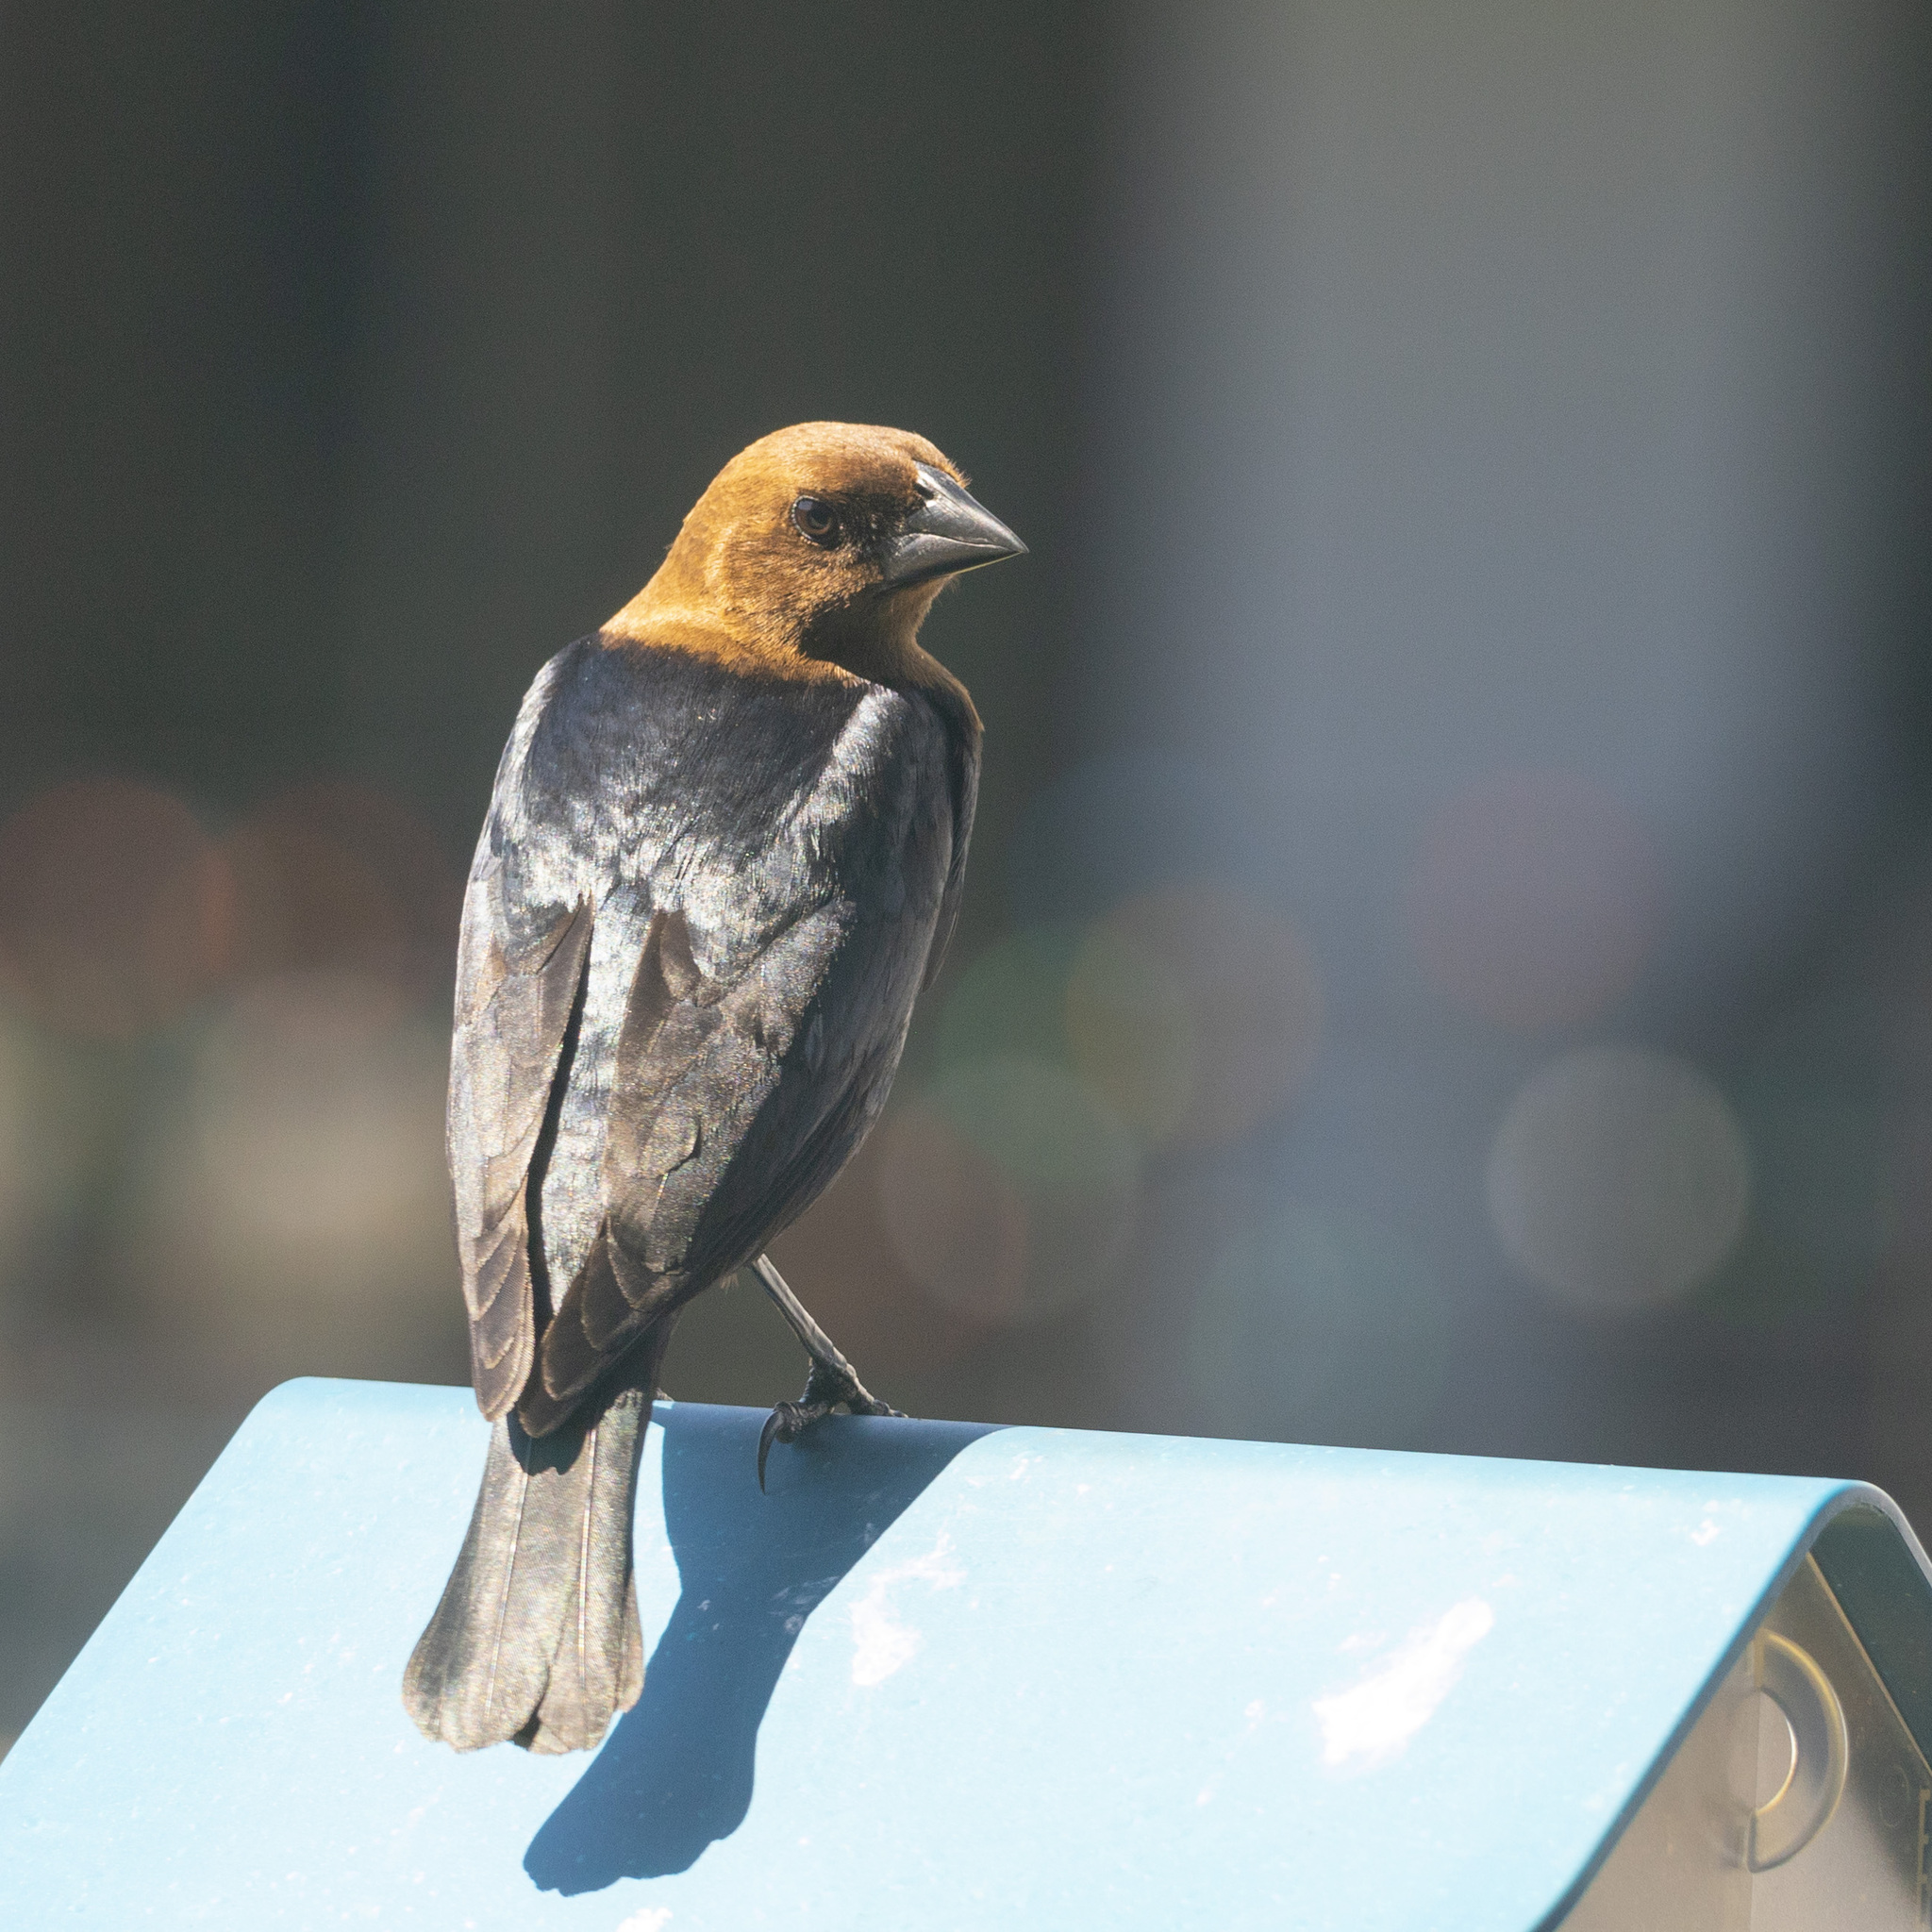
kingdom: Animalia
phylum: Chordata
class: Aves
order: Passeriformes
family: Icteridae
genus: Molothrus
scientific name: Molothrus ater
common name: Brown-headed cowbird
